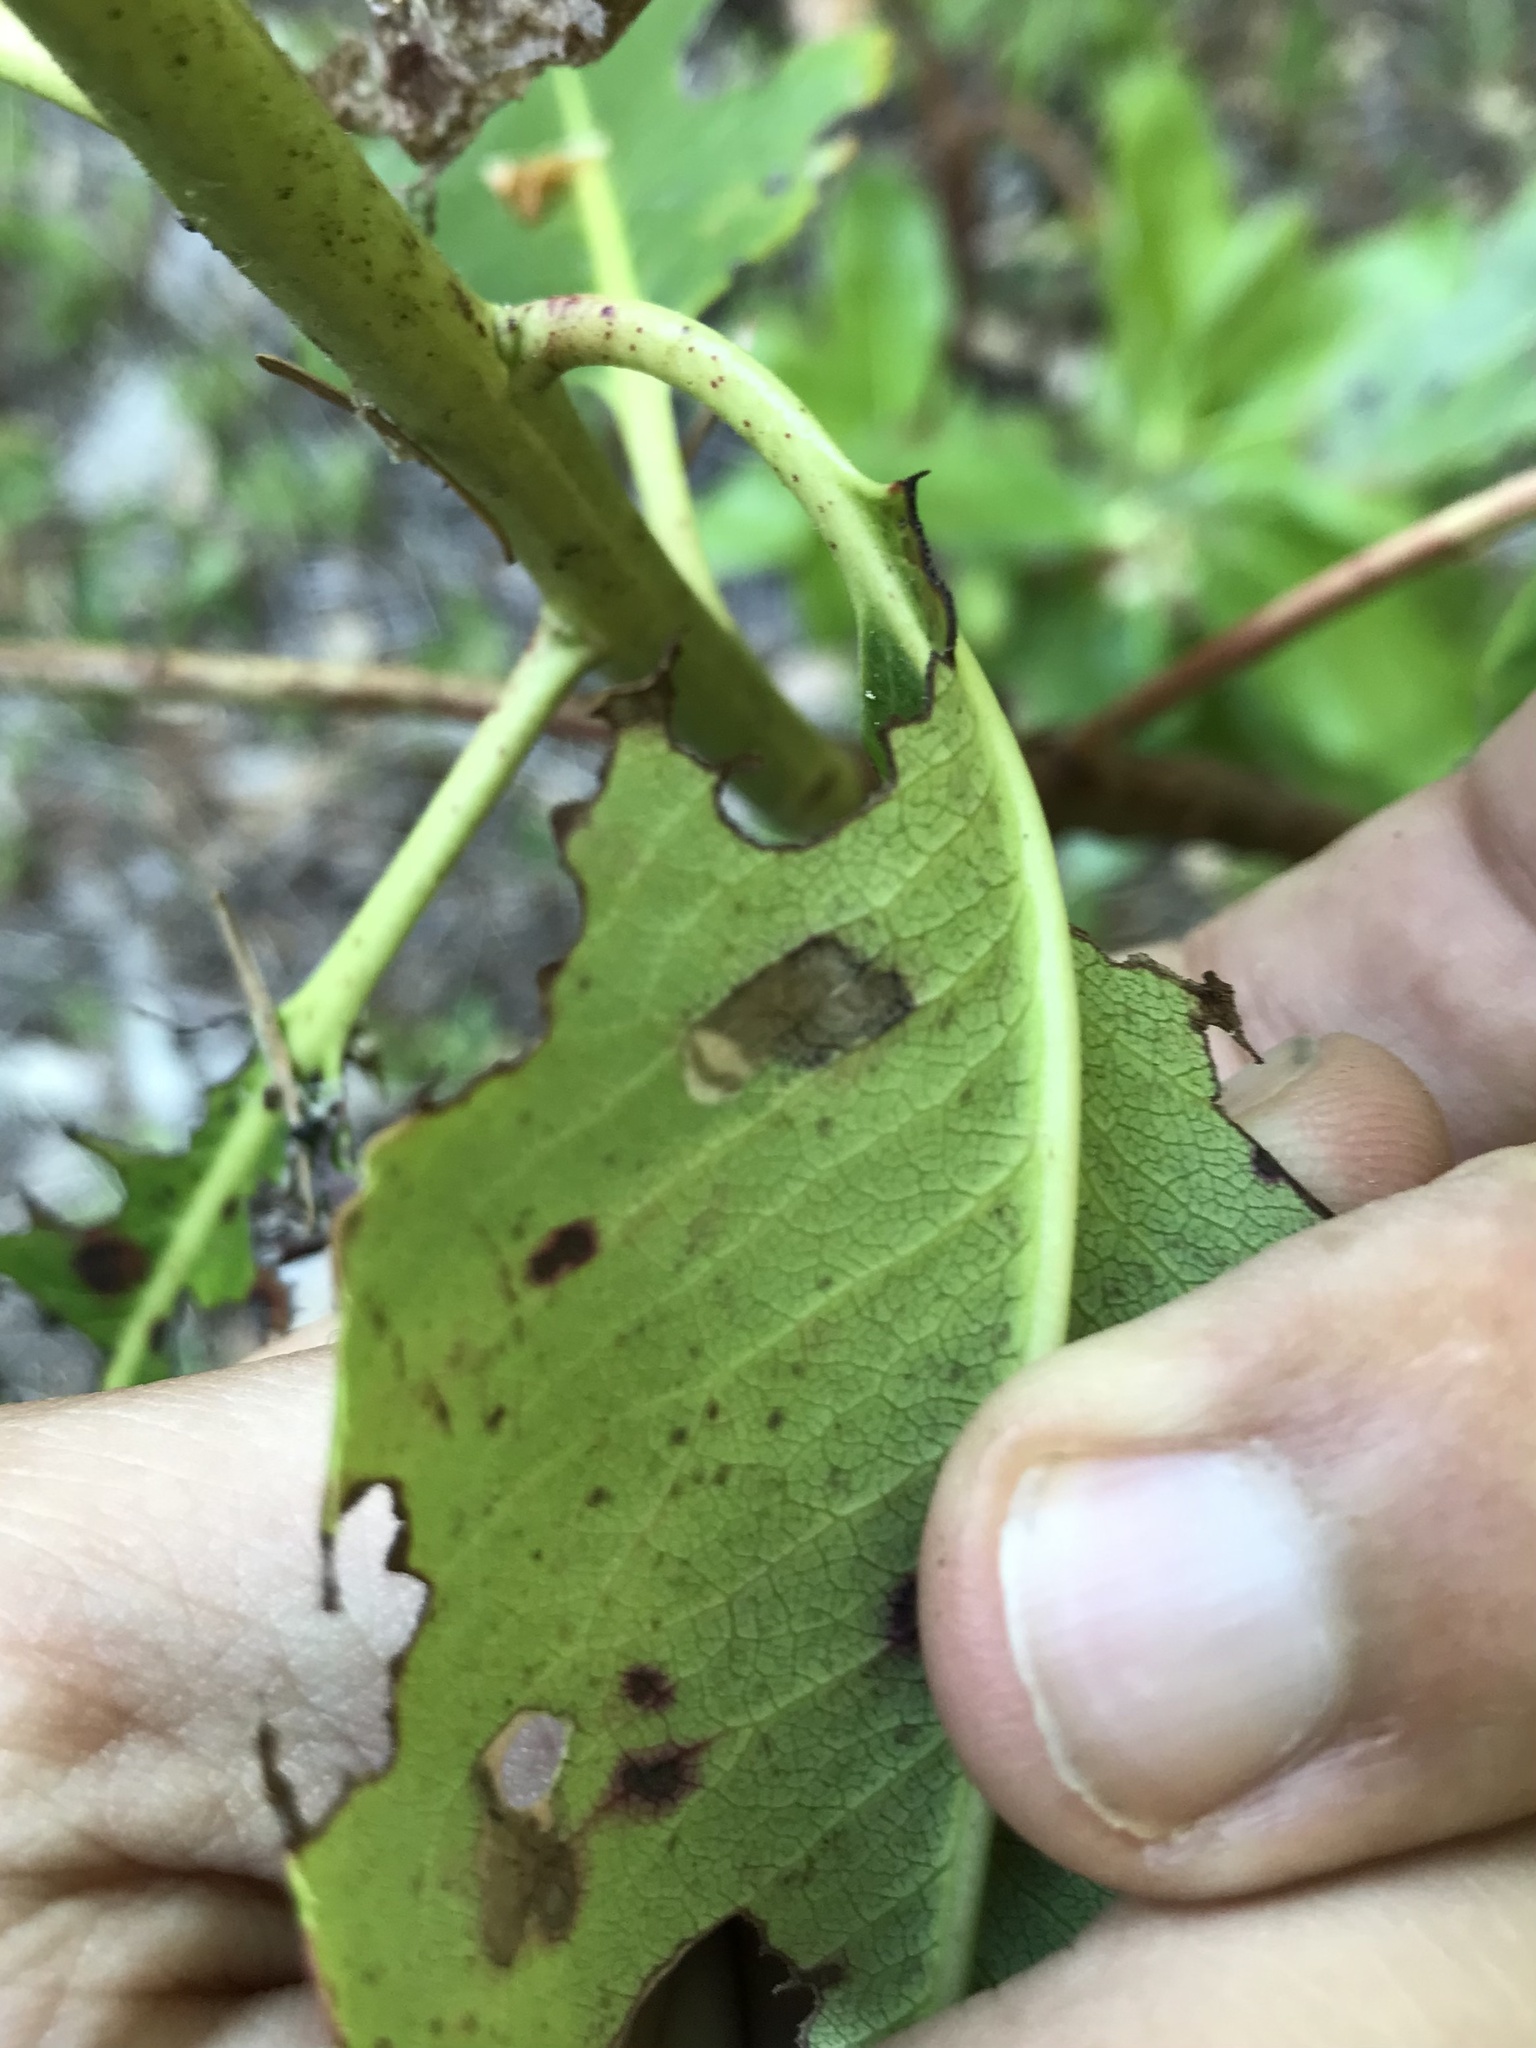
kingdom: Animalia
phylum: Arthropoda
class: Insecta
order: Lepidoptera
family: Heliozelidae
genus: Coptodisca
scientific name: Coptodisca arbutiella
